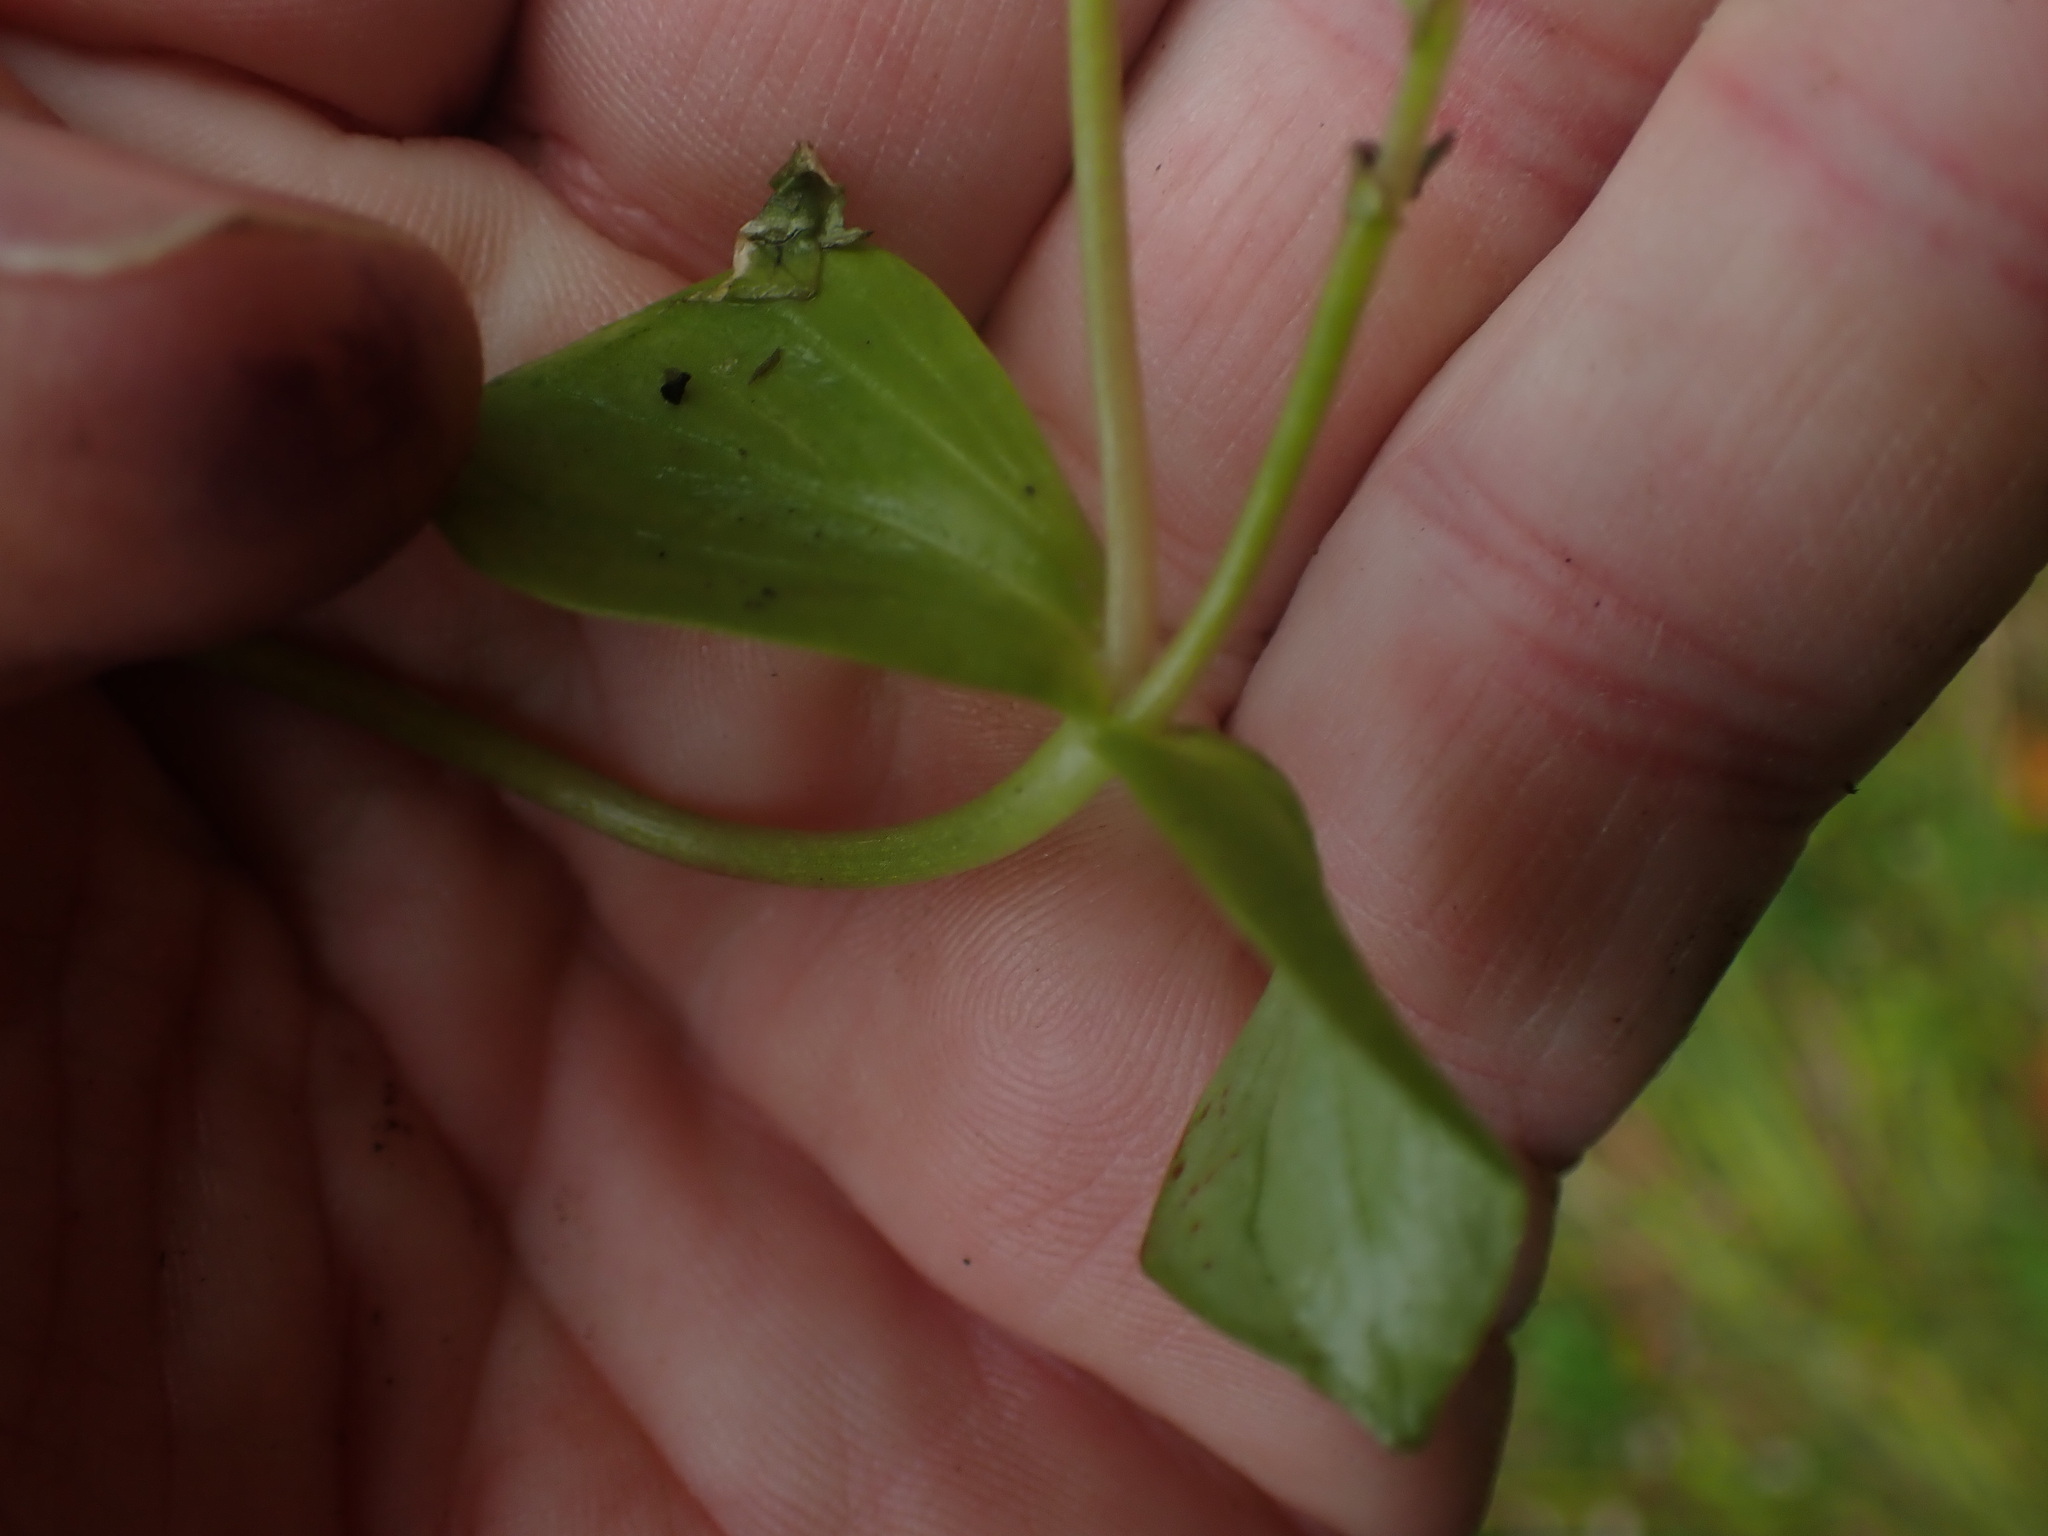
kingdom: Plantae
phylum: Tracheophyta
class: Magnoliopsida
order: Caryophyllales
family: Montiaceae
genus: Claytonia
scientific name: Claytonia sibirica
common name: Pink purslane
